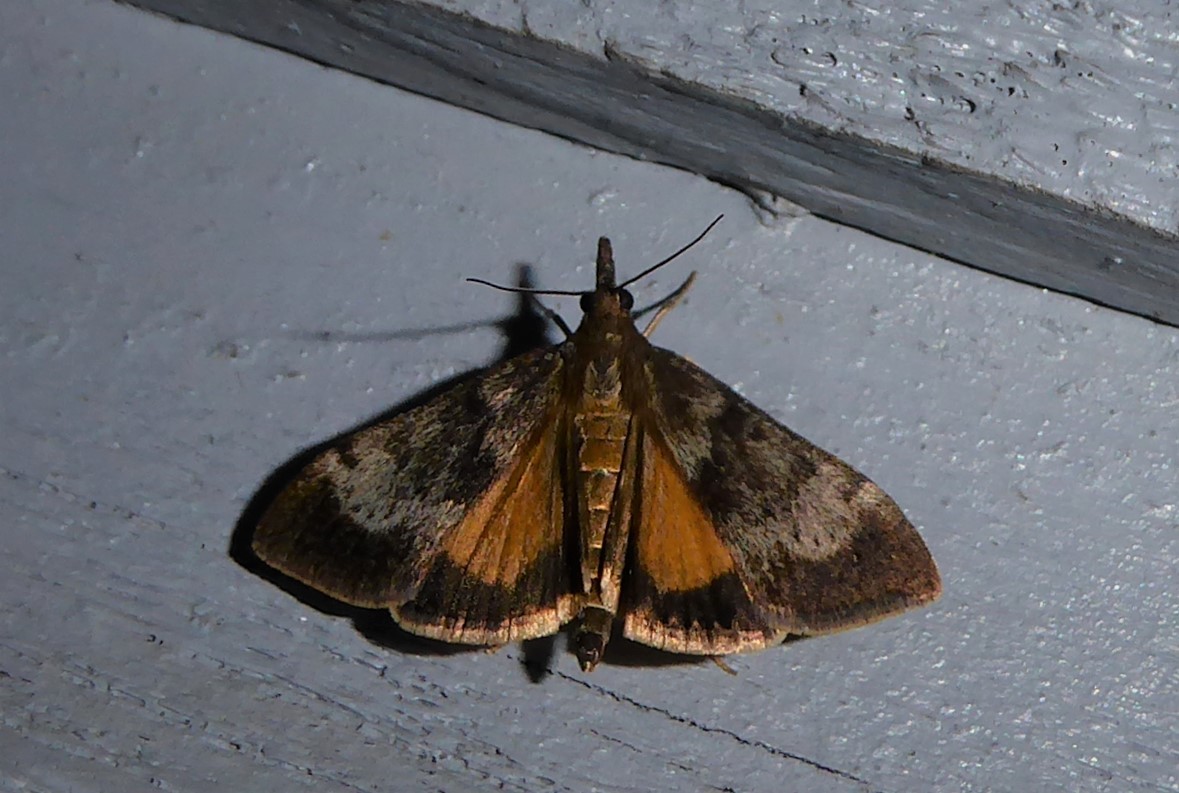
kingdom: Animalia
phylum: Arthropoda
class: Insecta
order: Lepidoptera
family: Crambidae
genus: Uresiphita
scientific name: Uresiphita
